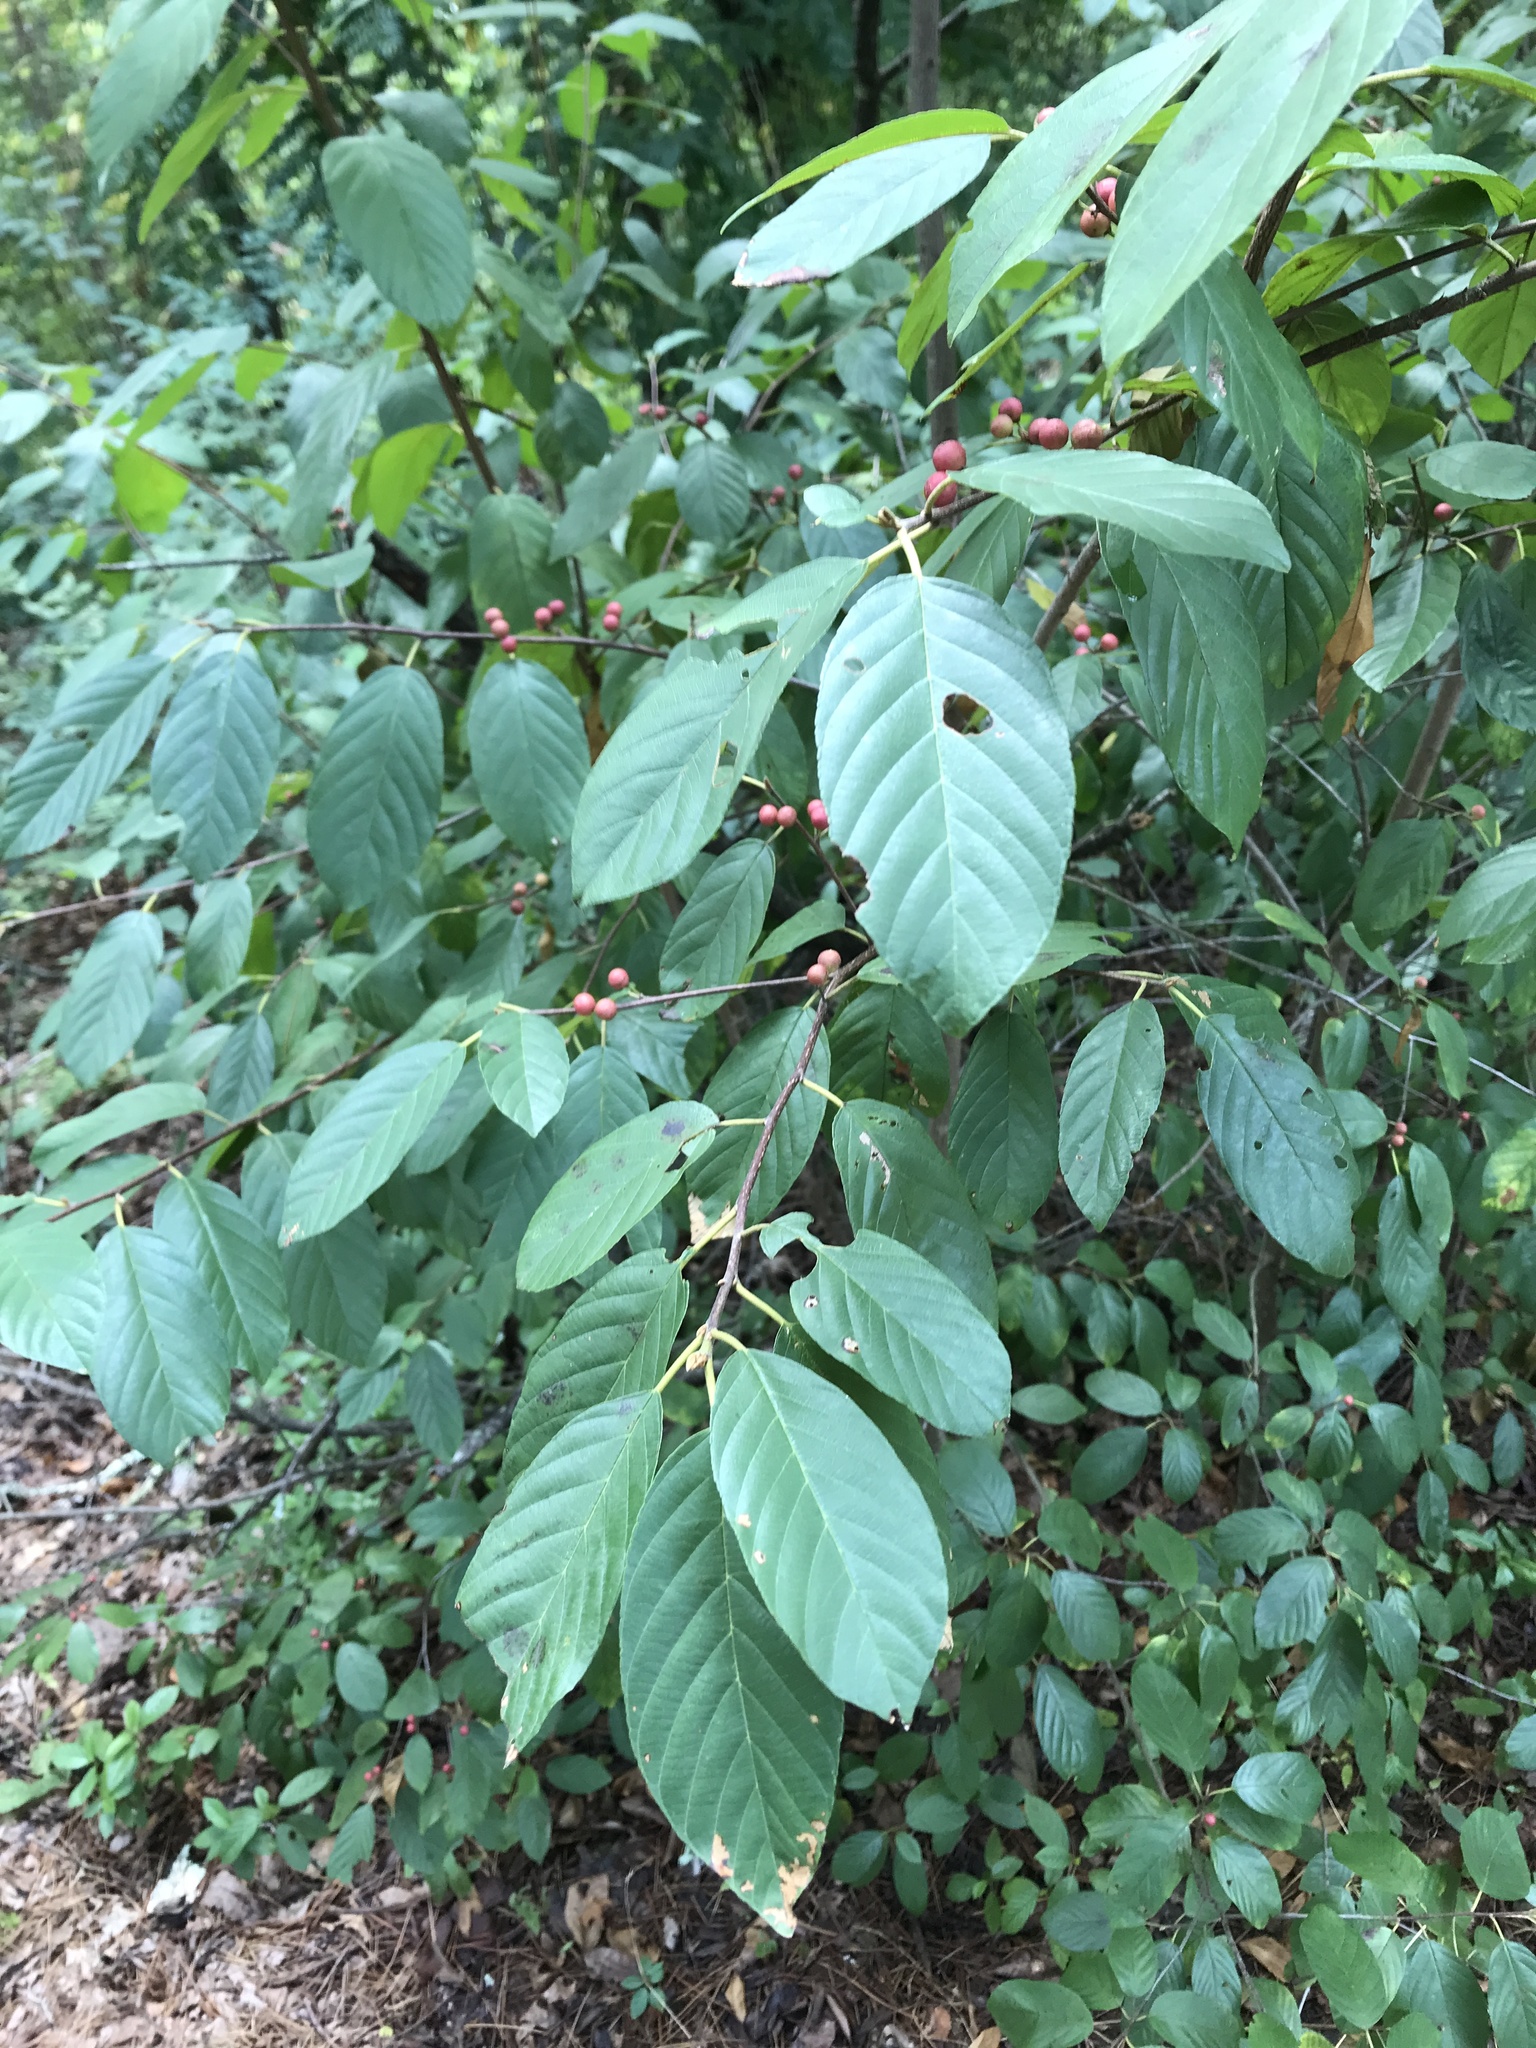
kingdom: Plantae
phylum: Tracheophyta
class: Magnoliopsida
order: Rosales
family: Rhamnaceae
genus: Frangula
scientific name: Frangula caroliniana
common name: Carolina buckthorn
